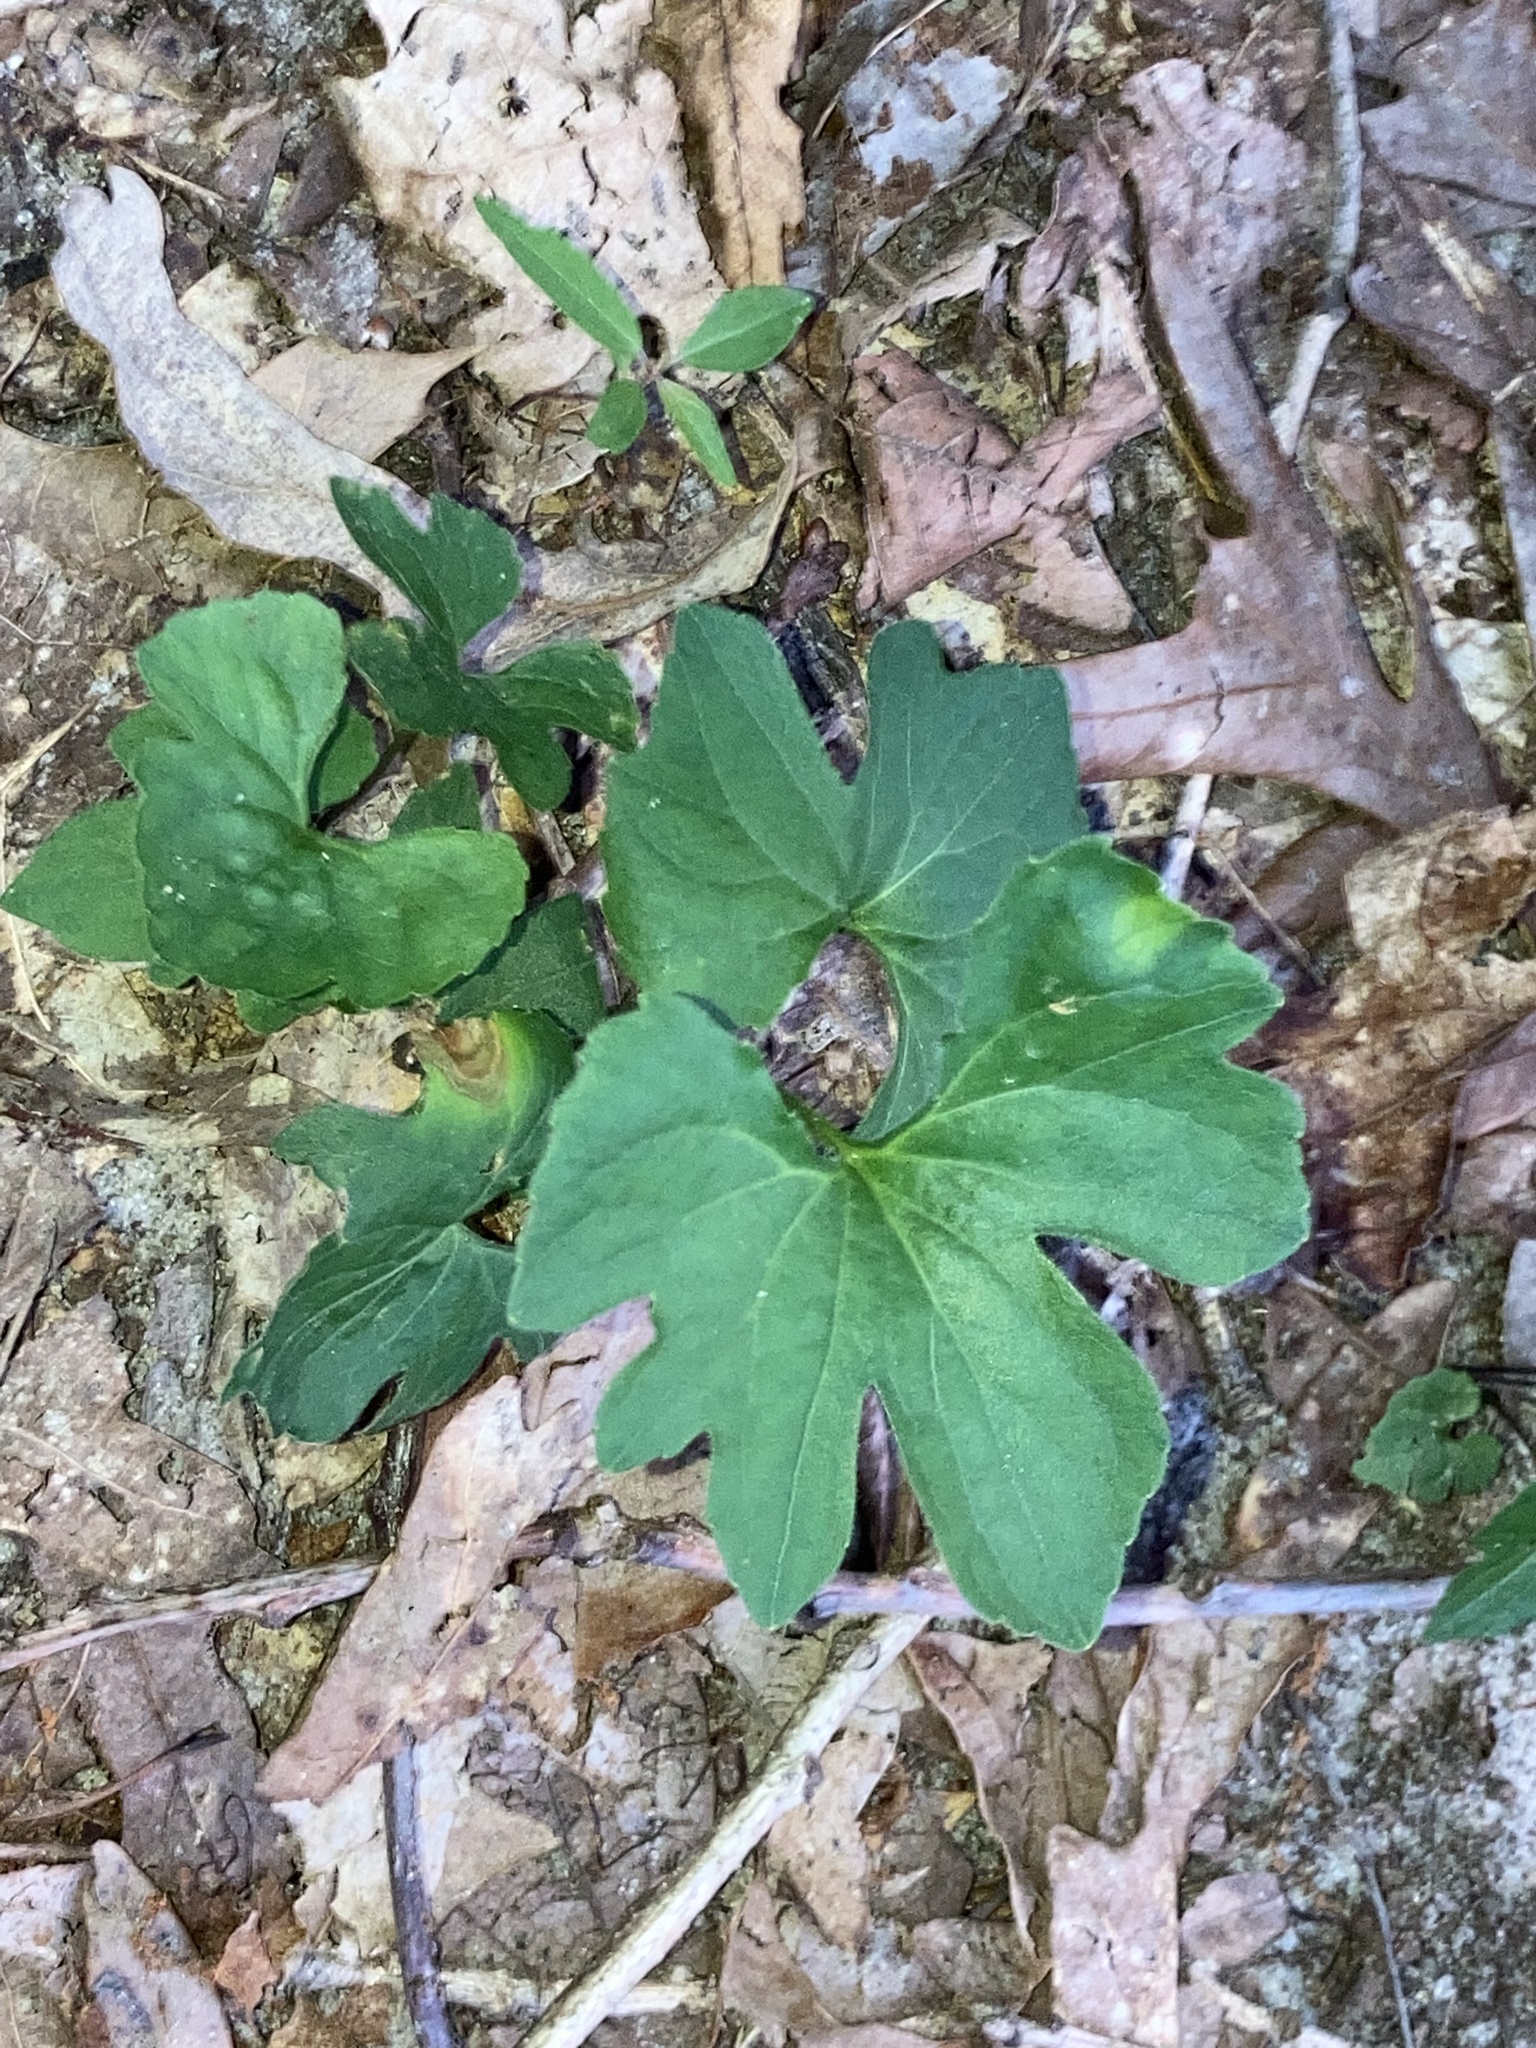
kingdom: Plantae
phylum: Tracheophyta
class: Magnoliopsida
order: Malpighiales
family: Violaceae
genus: Viola
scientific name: Viola palmata
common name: Early blue violet
